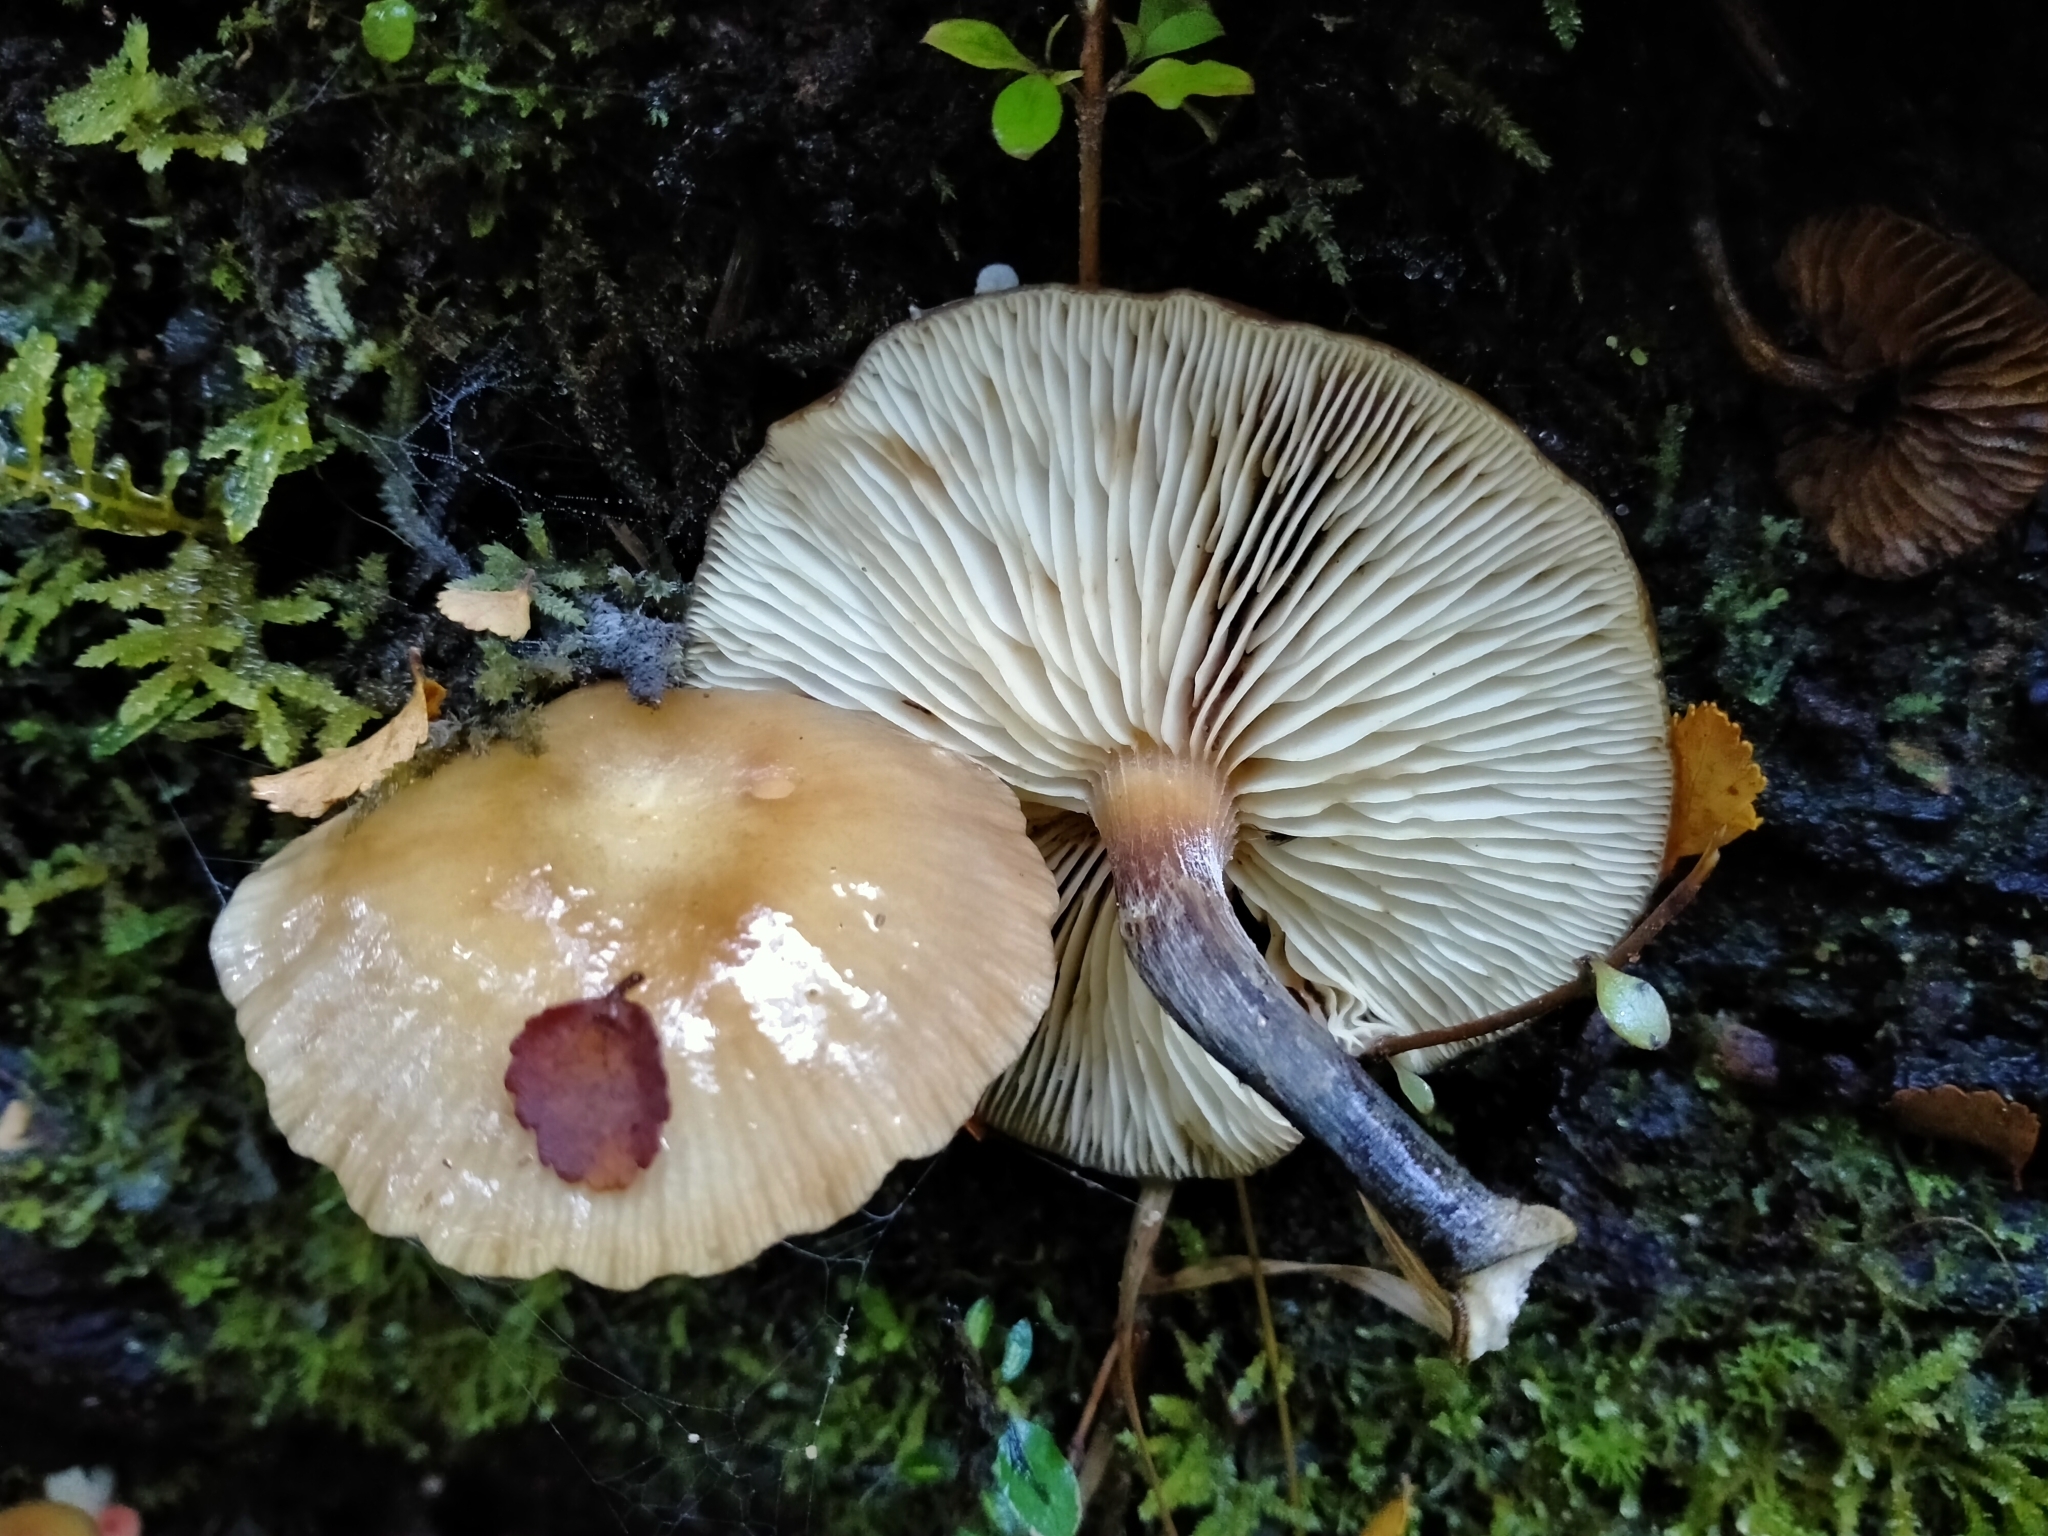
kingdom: Fungi
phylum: Basidiomycota
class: Agaricomycetes
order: Agaricales
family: Physalacriaceae
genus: Armillaria
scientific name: Armillaria novae-zelandiae
